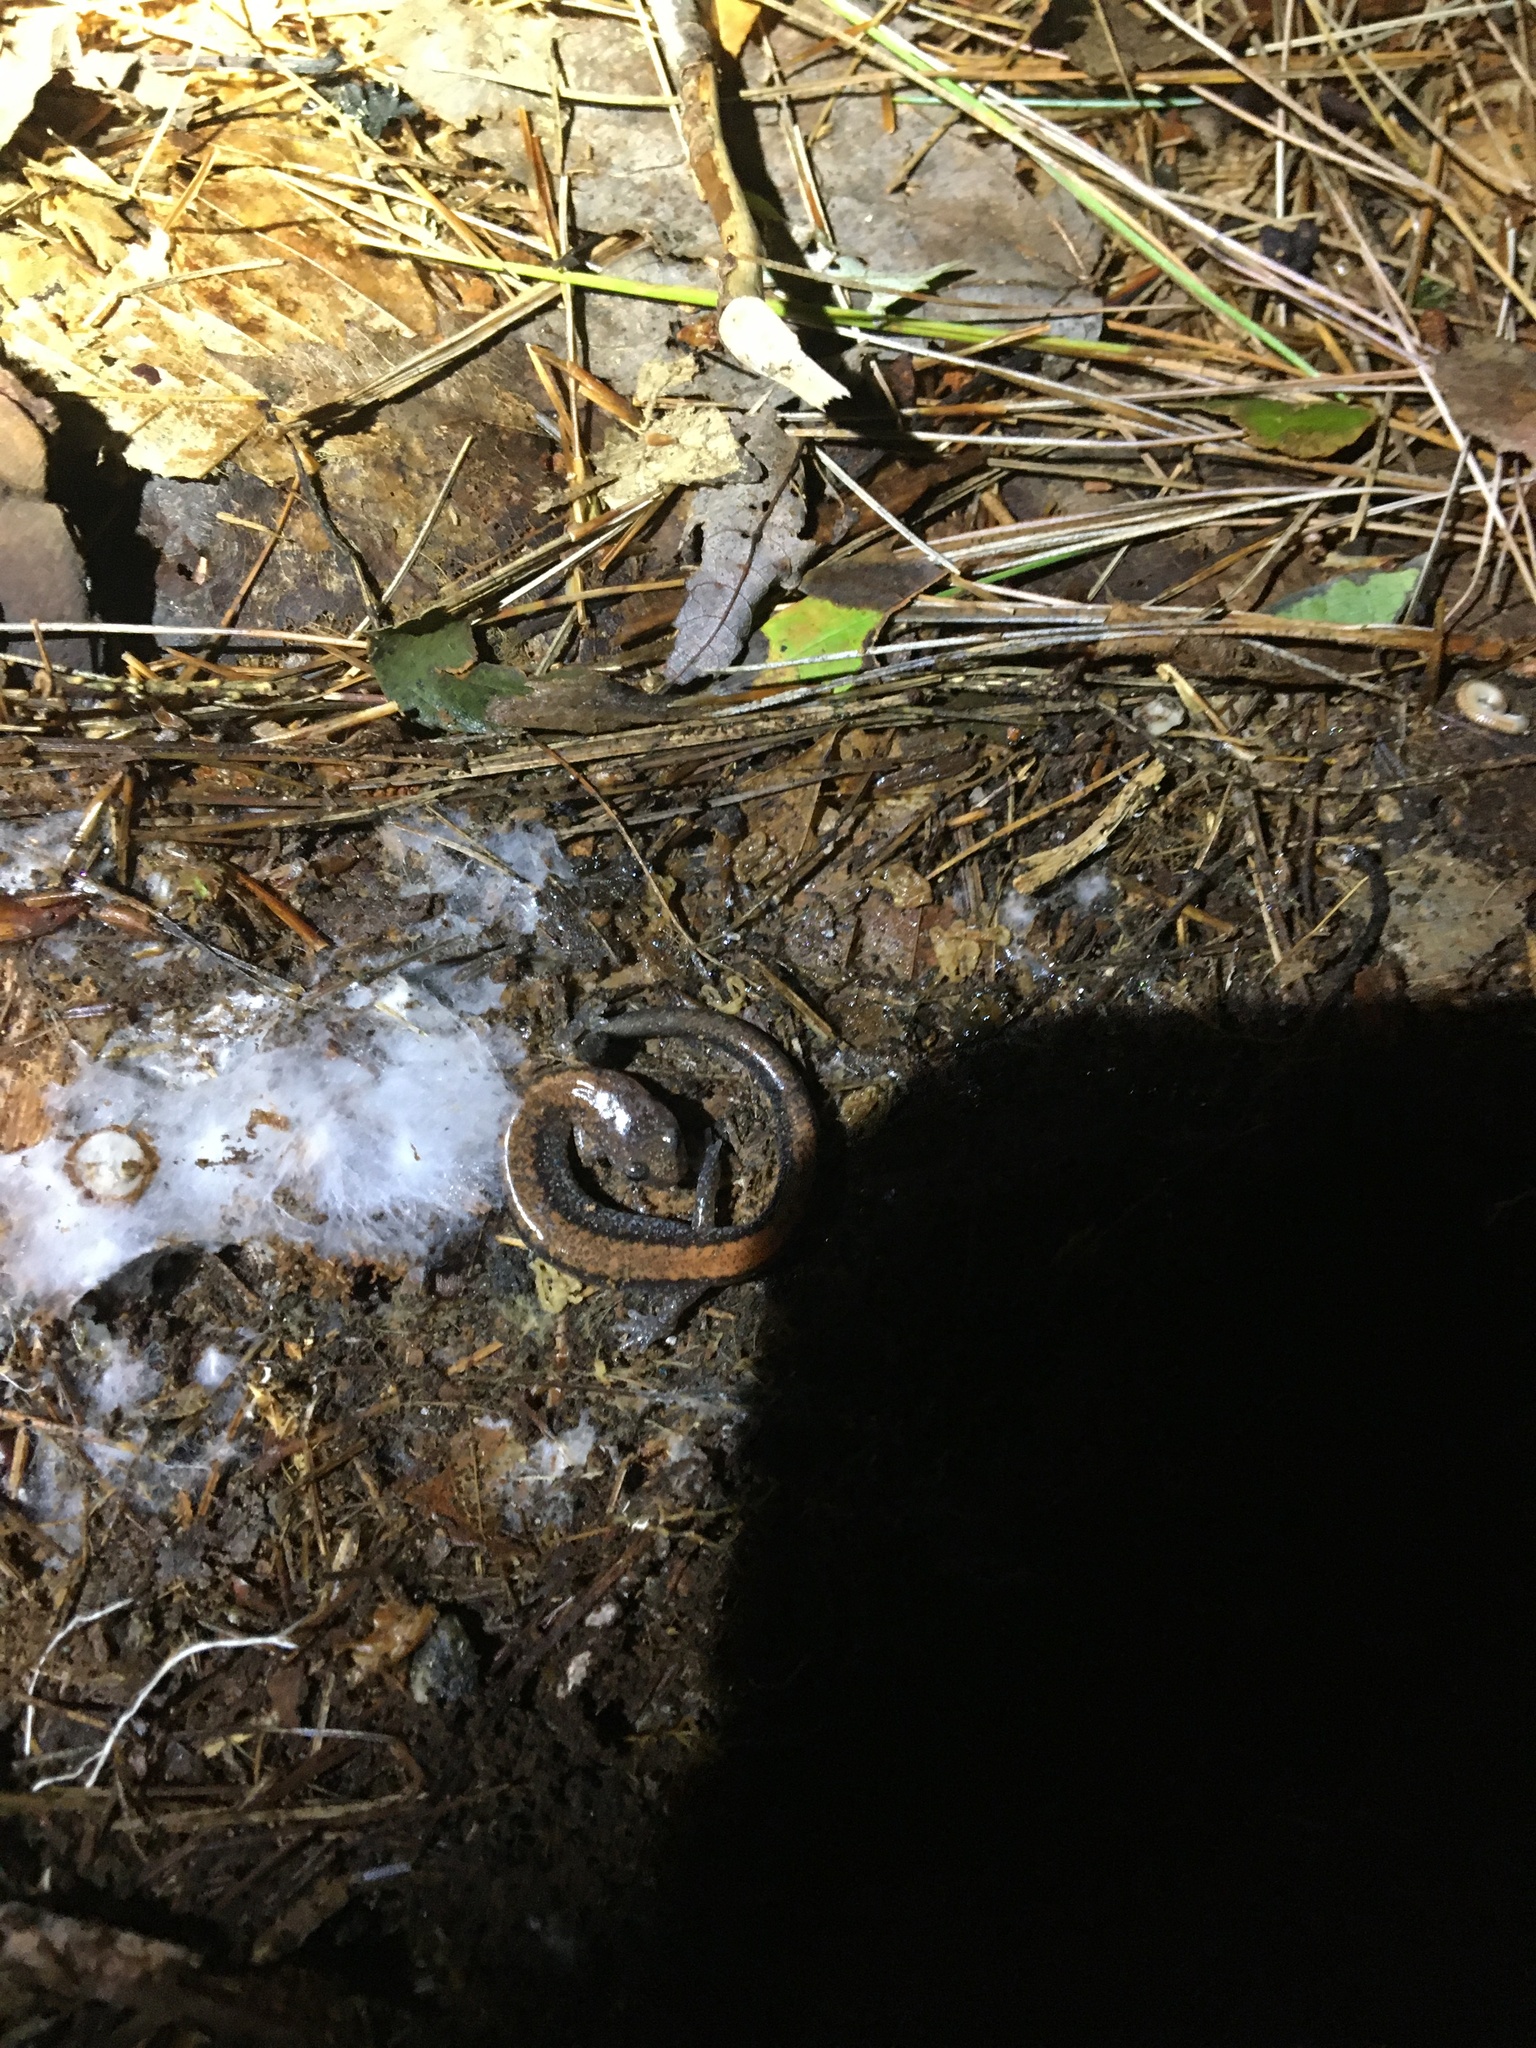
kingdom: Animalia
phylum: Chordata
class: Amphibia
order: Caudata
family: Plethodontidae
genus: Plethodon
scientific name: Plethodon cinereus
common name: Redback salamander
